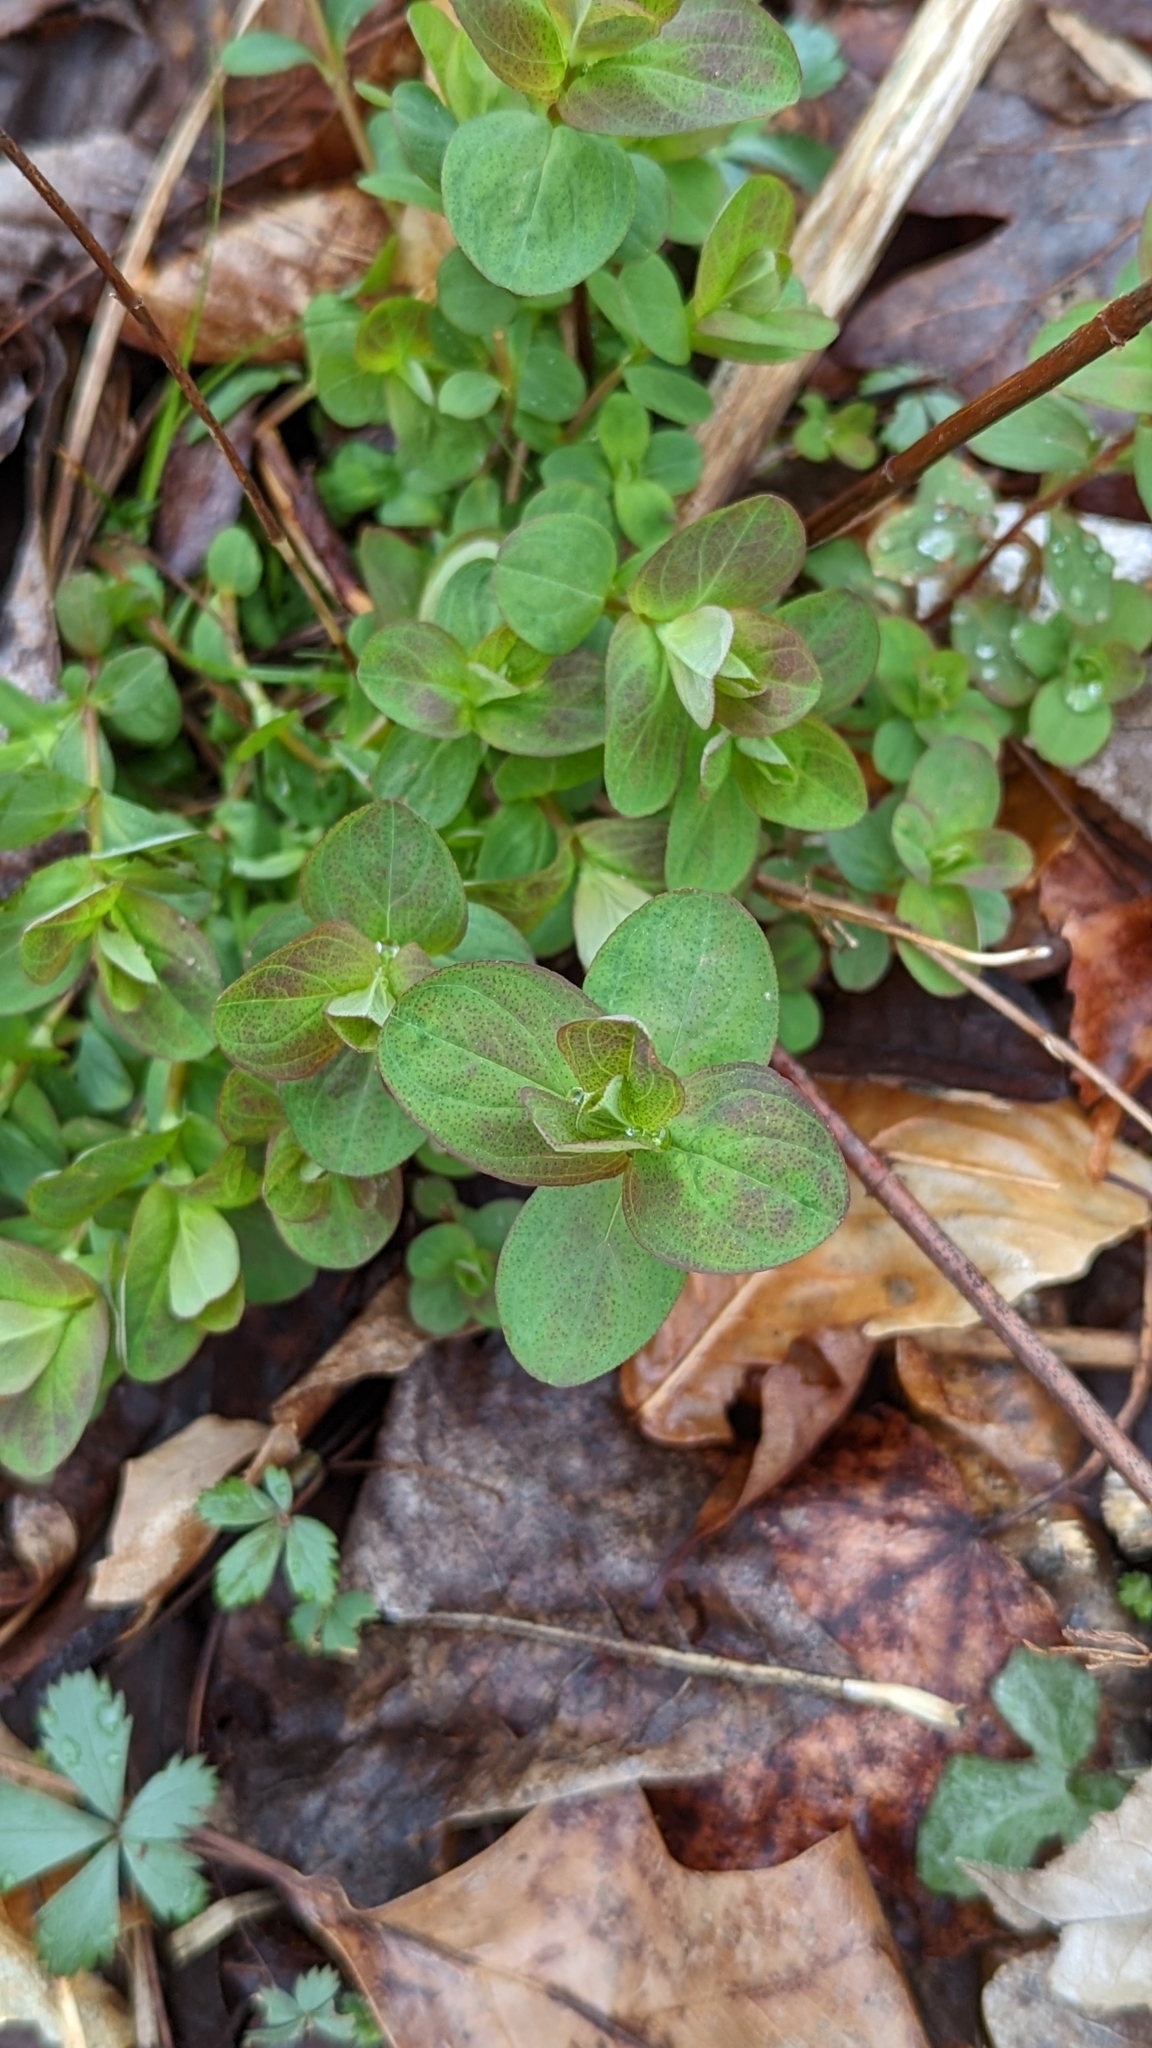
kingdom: Plantae
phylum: Tracheophyta
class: Magnoliopsida
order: Malpighiales
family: Hypericaceae
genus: Hypericum
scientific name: Hypericum punctatum
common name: Spotted st. john's-wort
